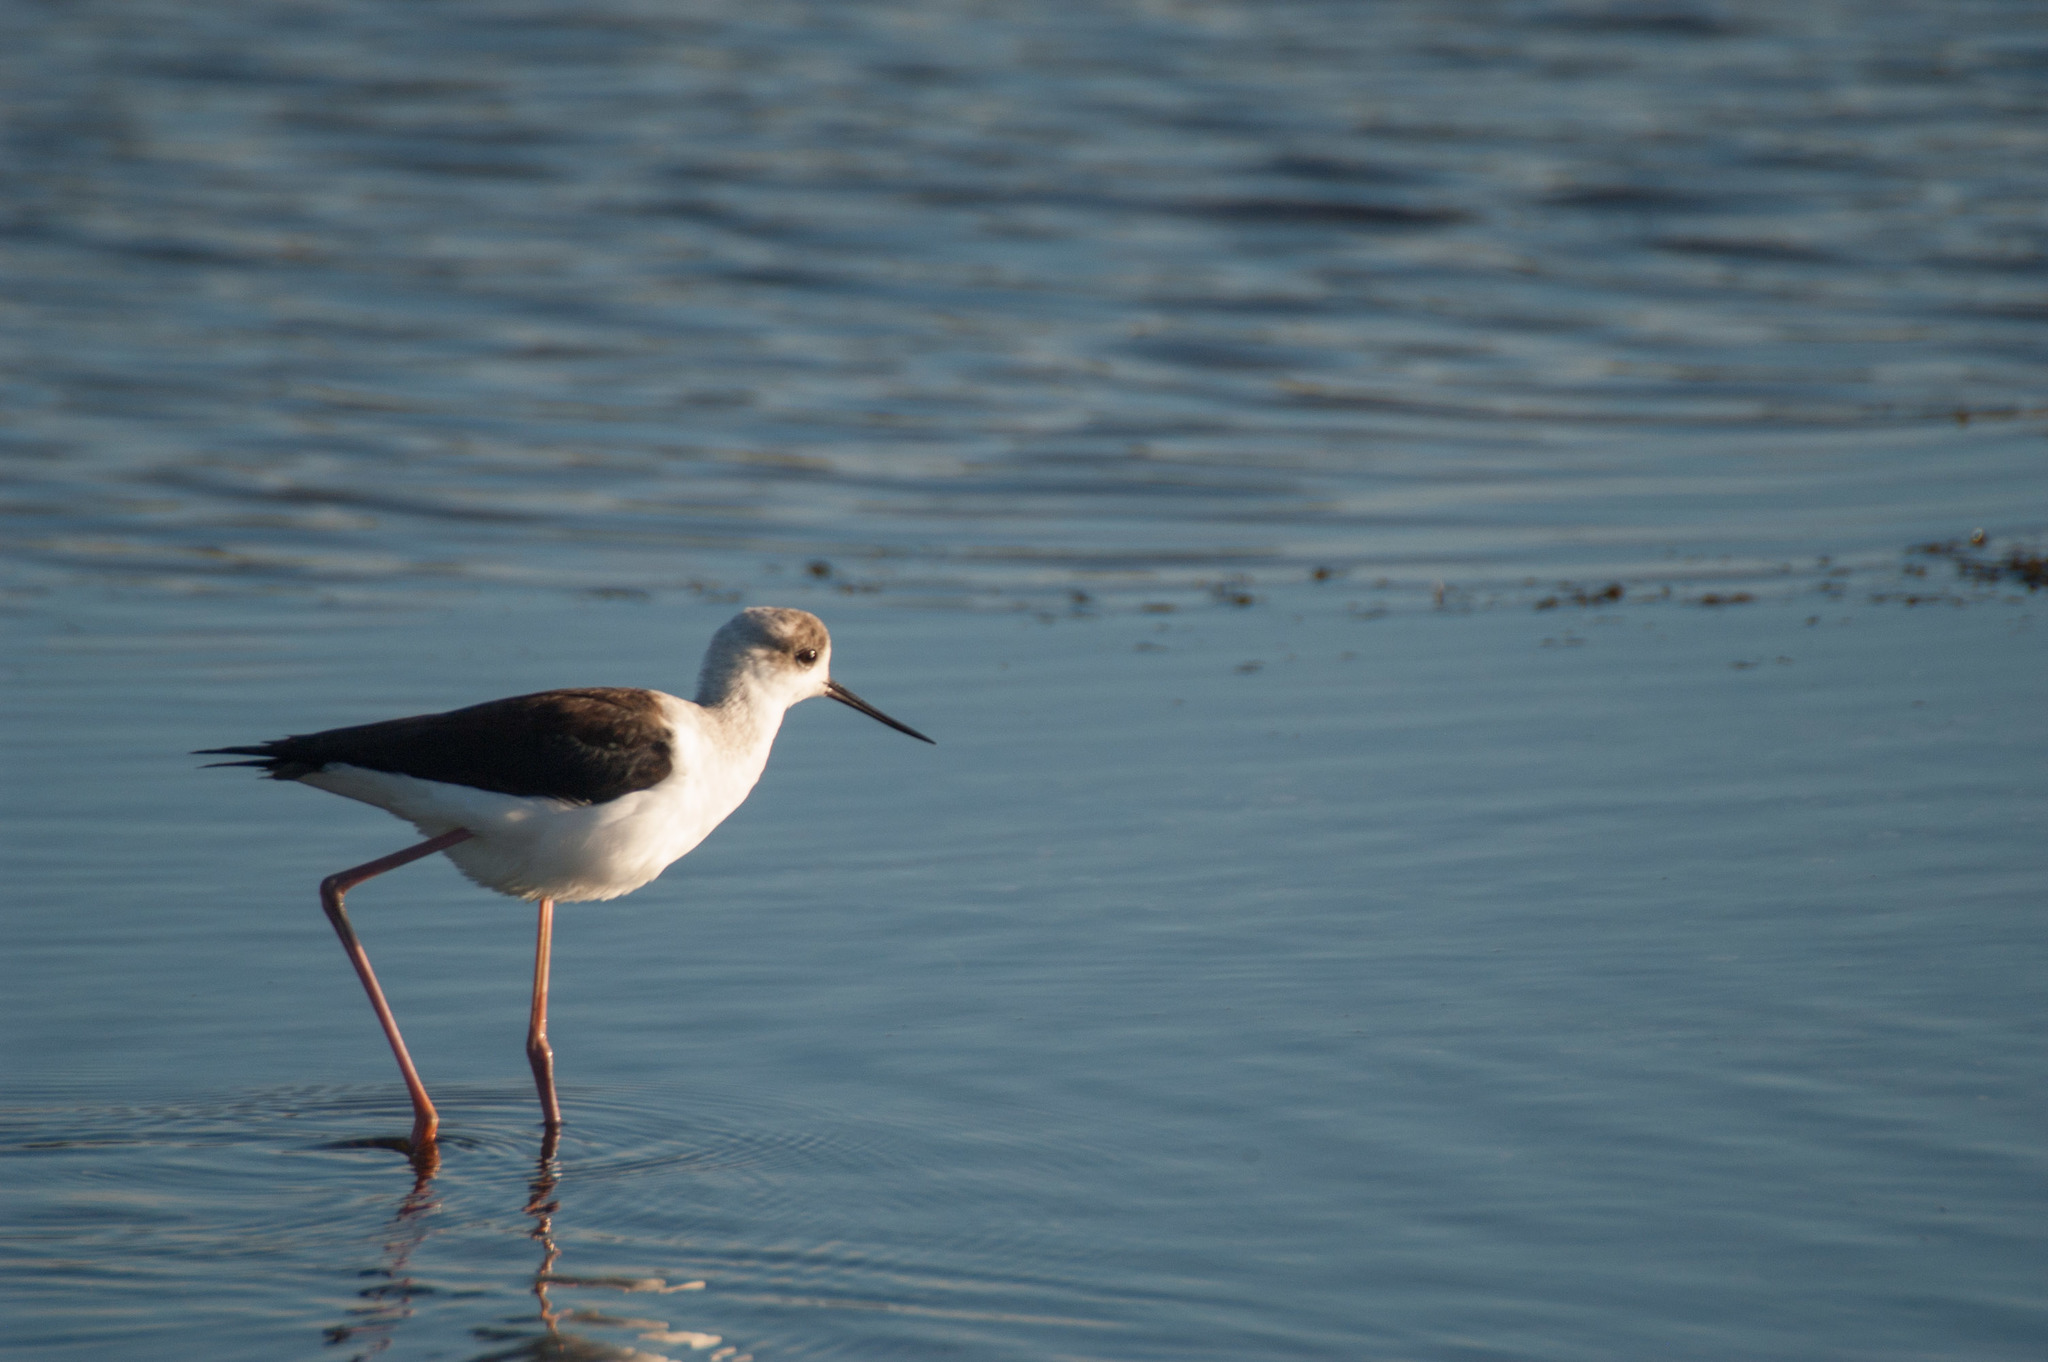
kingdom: Animalia
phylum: Chordata
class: Aves
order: Charadriiformes
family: Recurvirostridae
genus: Himantopus
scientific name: Himantopus leucocephalus
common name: White-headed stilt
